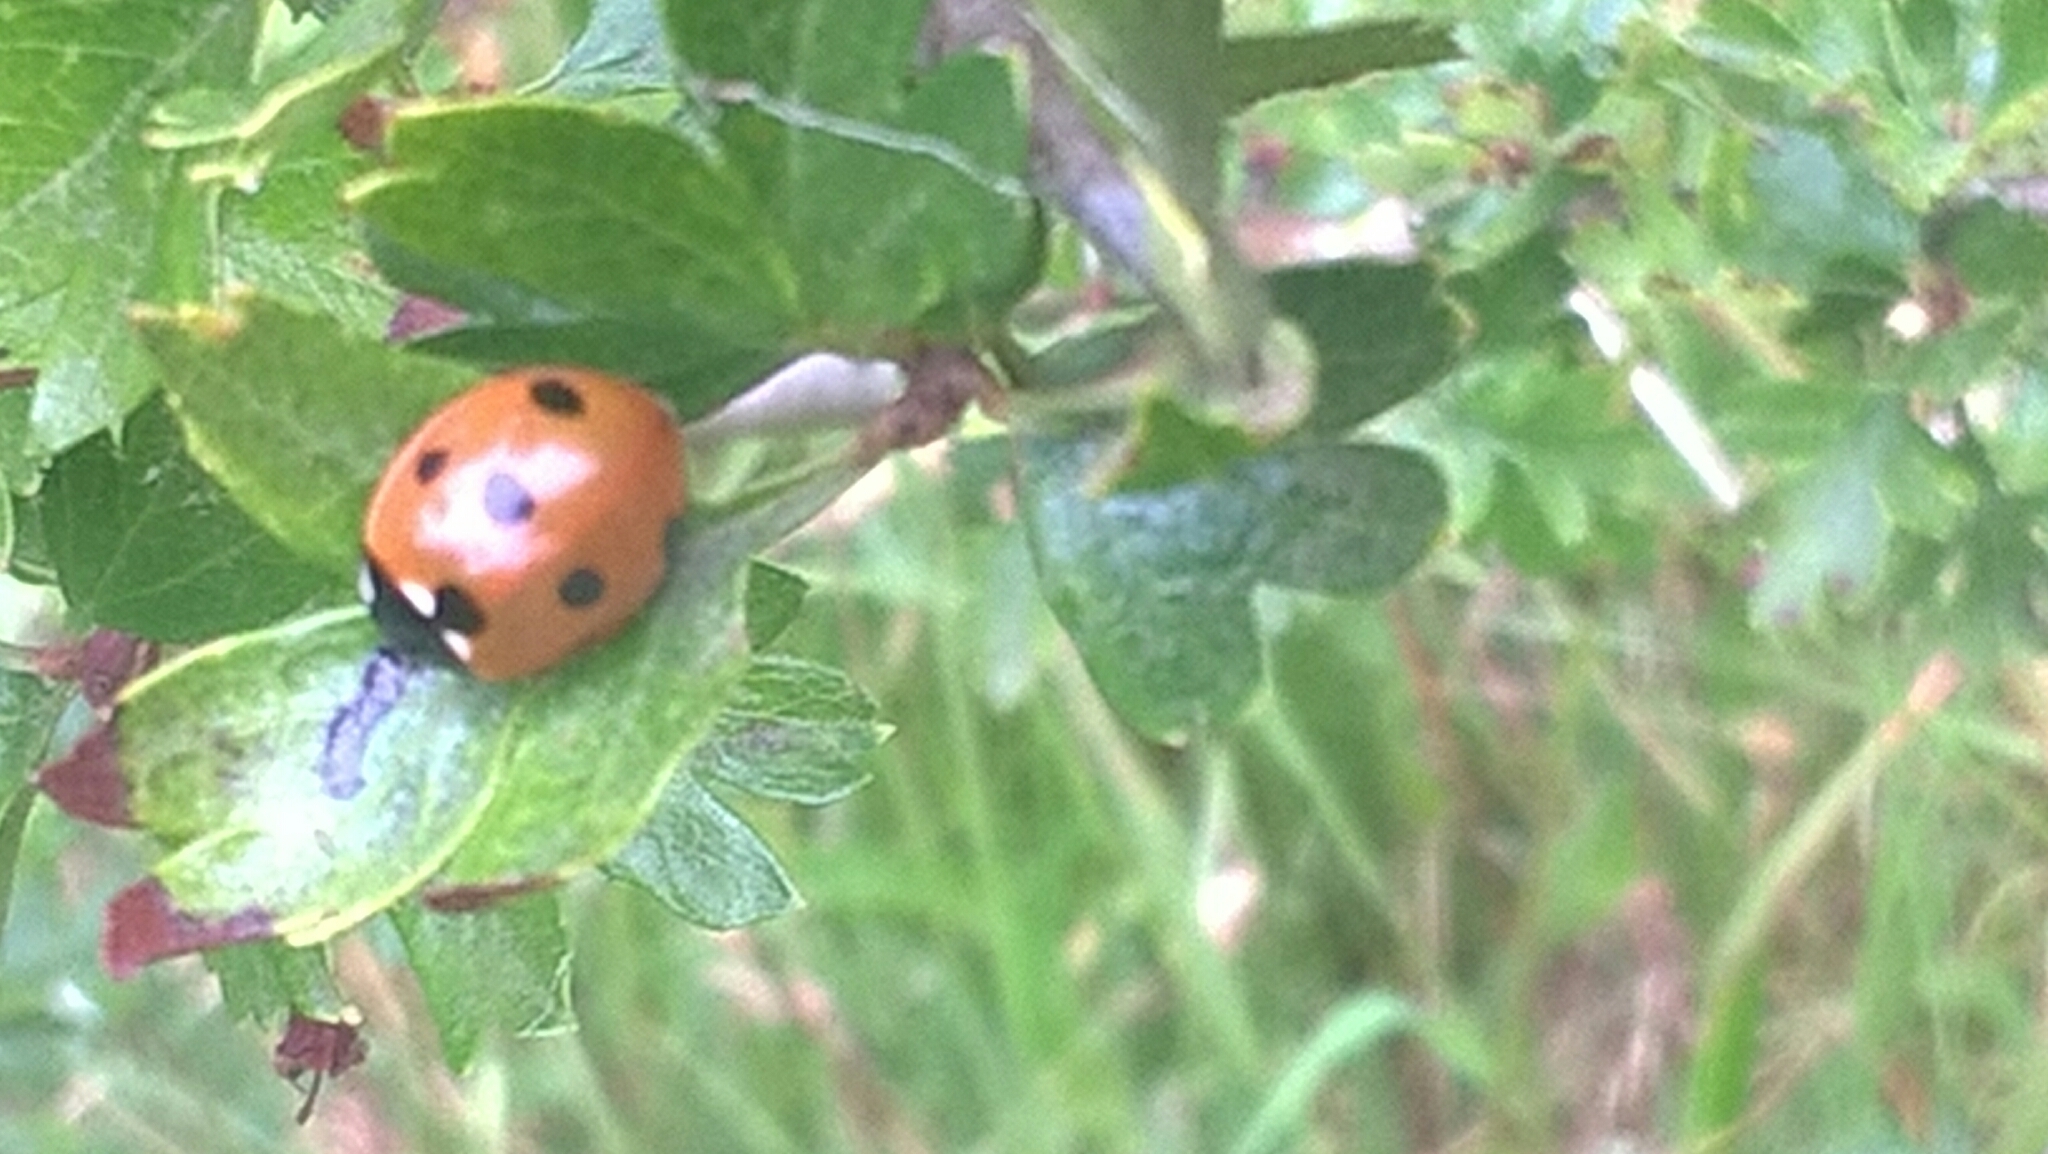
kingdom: Animalia
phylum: Arthropoda
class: Insecta
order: Coleoptera
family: Coccinellidae
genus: Coccinella
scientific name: Coccinella septempunctata
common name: Sevenspotted lady beetle
